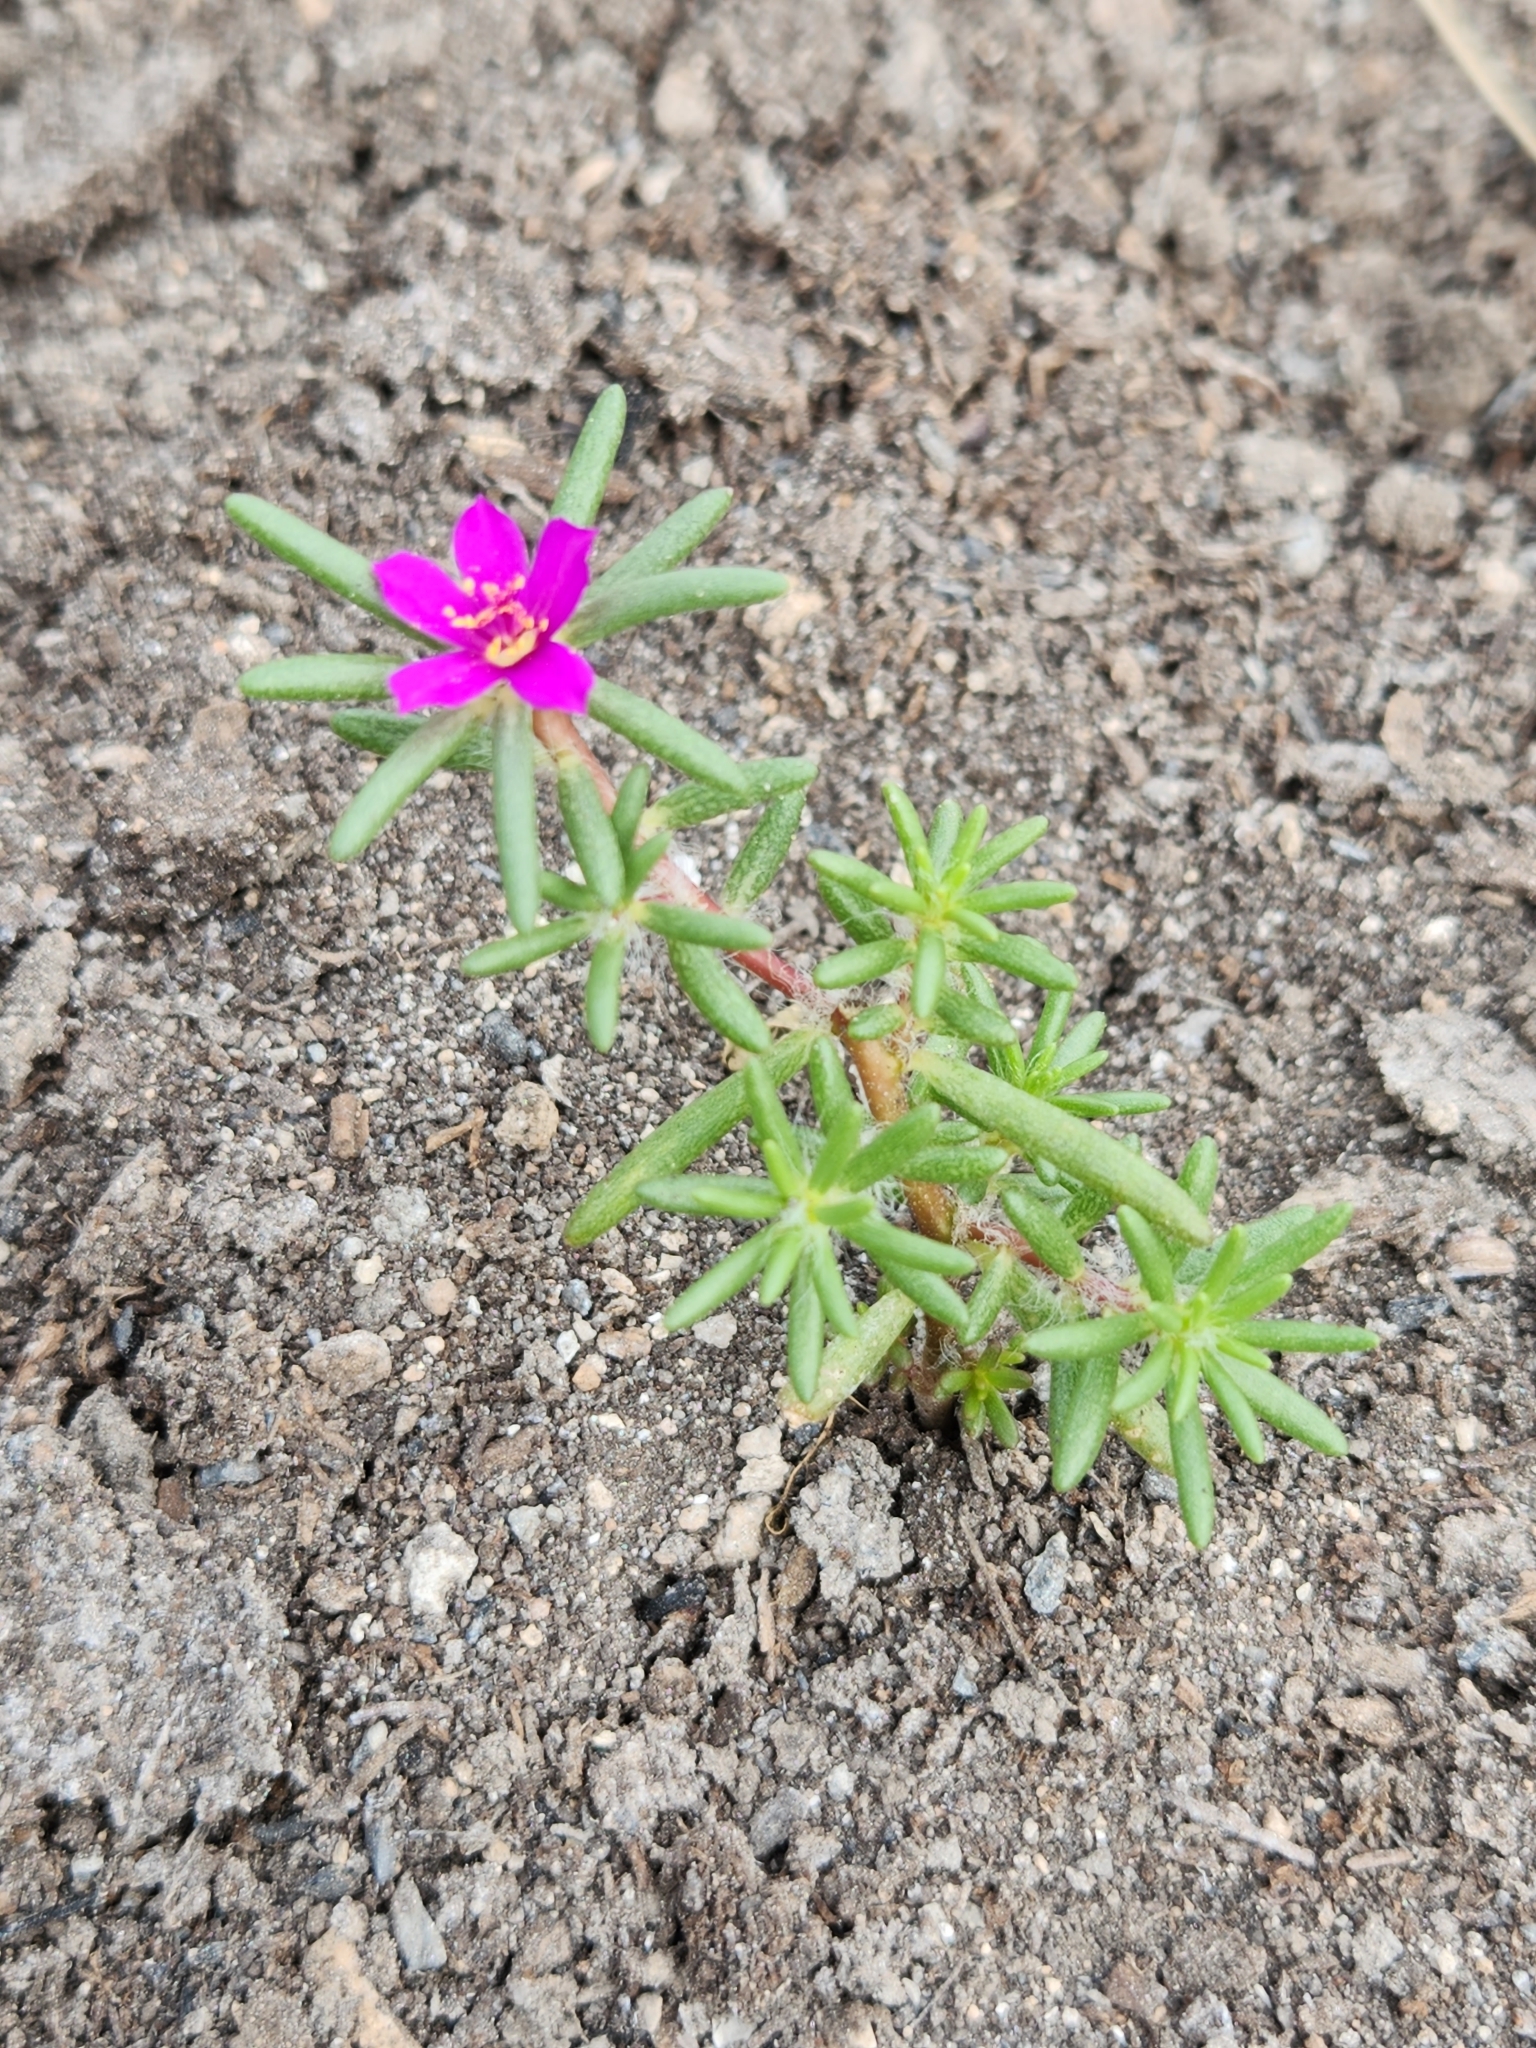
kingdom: Plantae
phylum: Tracheophyta
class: Magnoliopsida
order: Caryophyllales
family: Portulacaceae
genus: Portulaca
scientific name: Portulaca pilosa
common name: Kiss me quick
